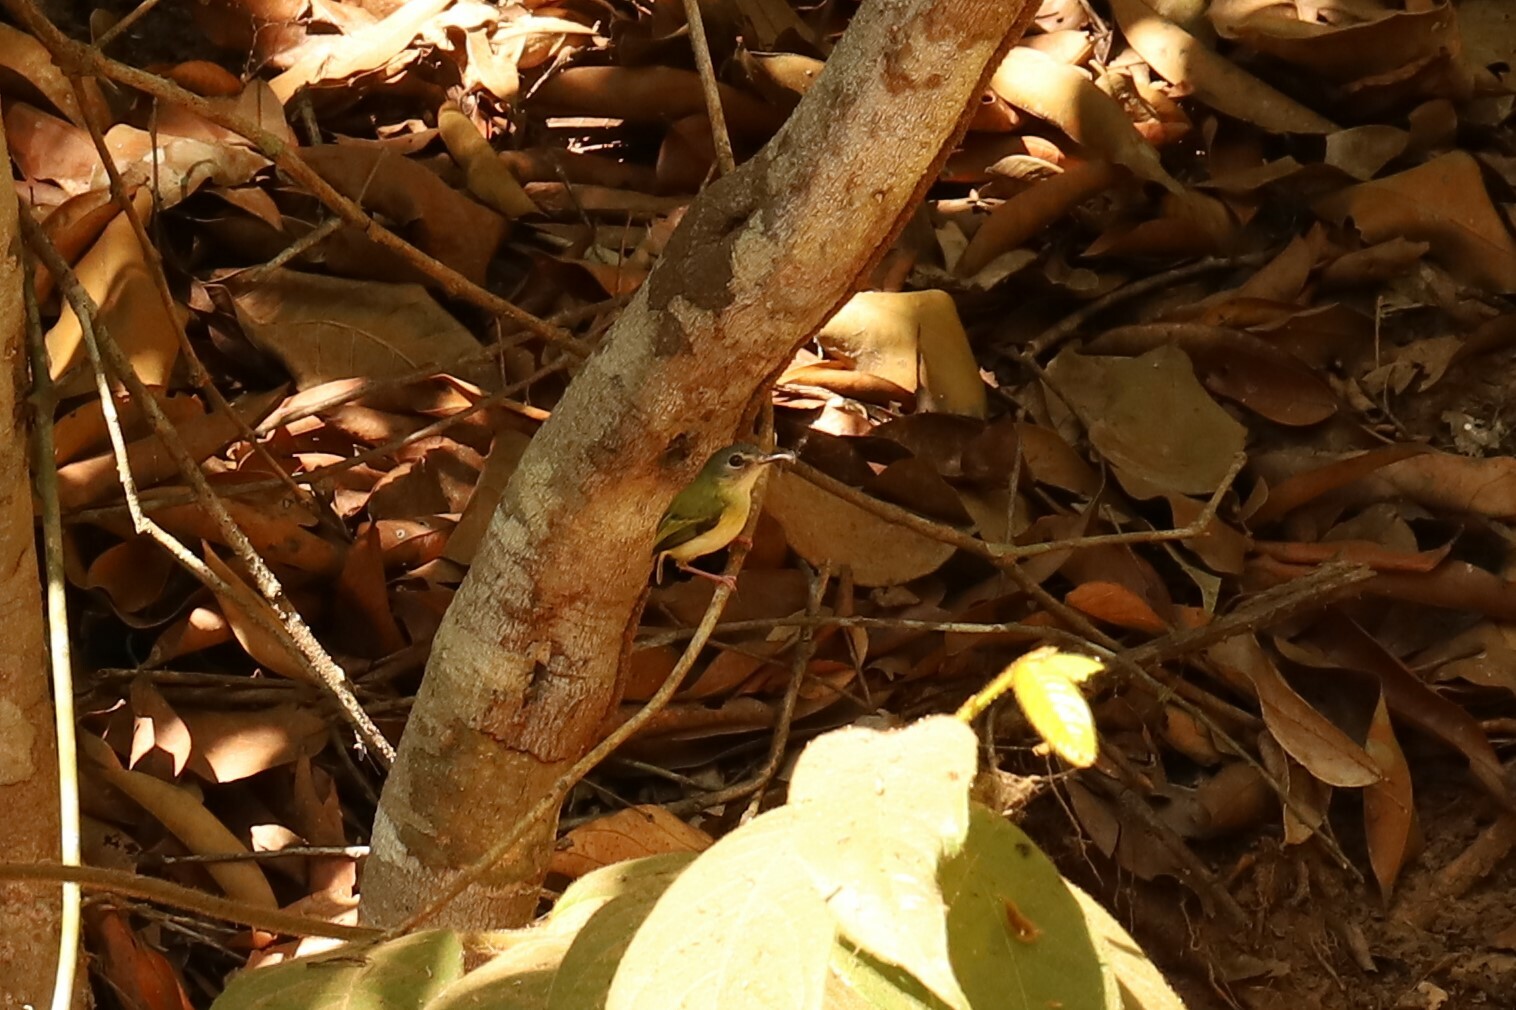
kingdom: Animalia
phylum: Chordata
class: Aves
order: Passeriformes
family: Tyrannidae
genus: Myiornis
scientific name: Myiornis ecaudatus
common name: Short-tailed pygmy tyrant
